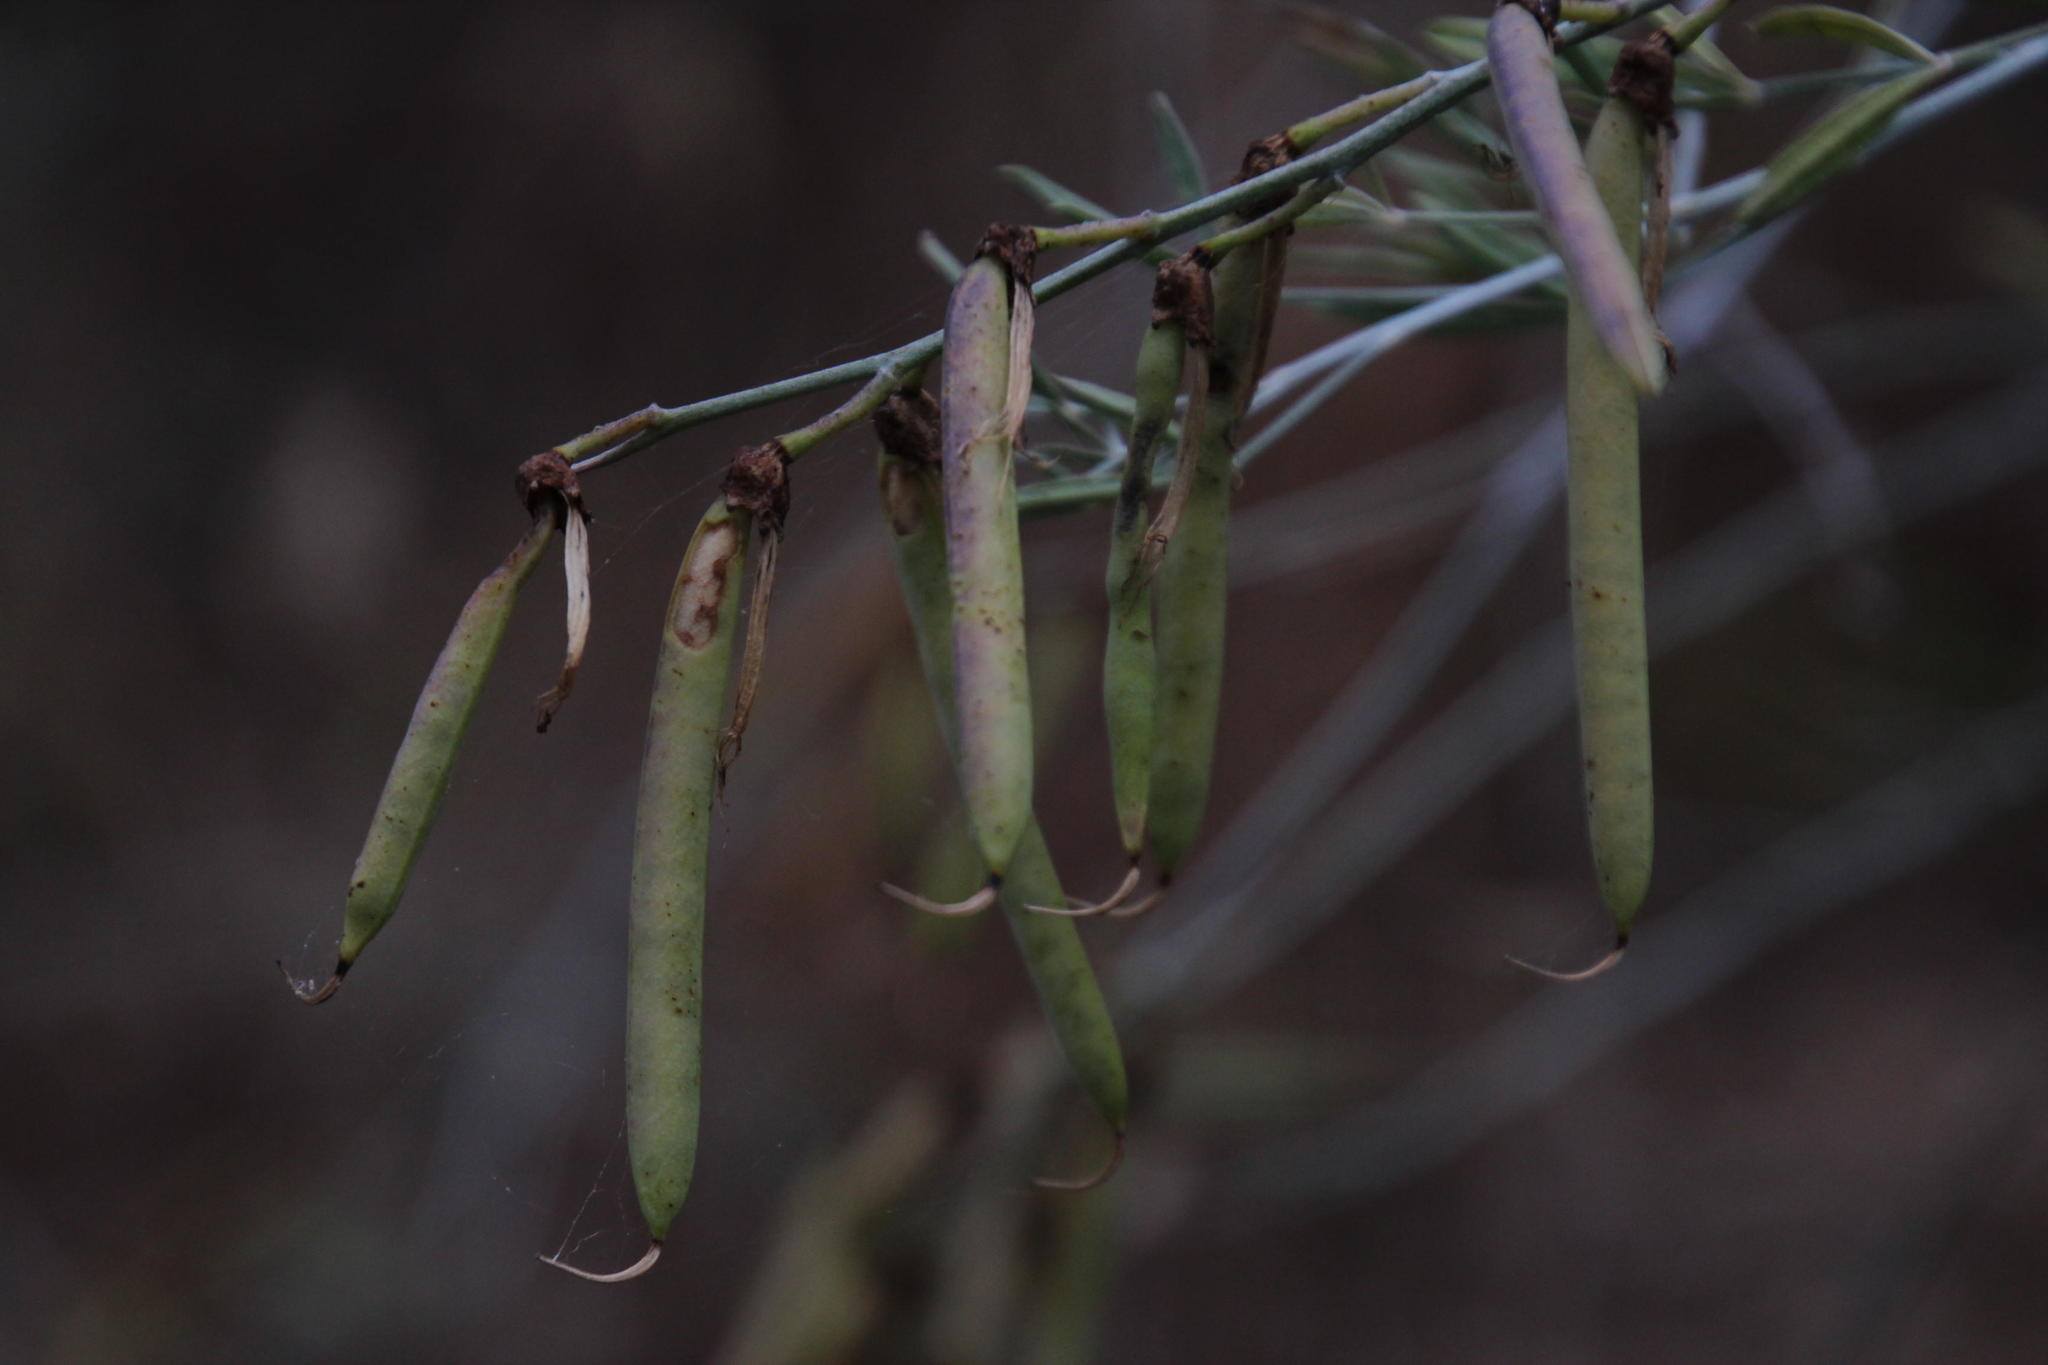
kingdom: Plantae
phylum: Tracheophyta
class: Magnoliopsida
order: Fabales
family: Fabaceae
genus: Calobota
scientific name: Calobota cytisoides
